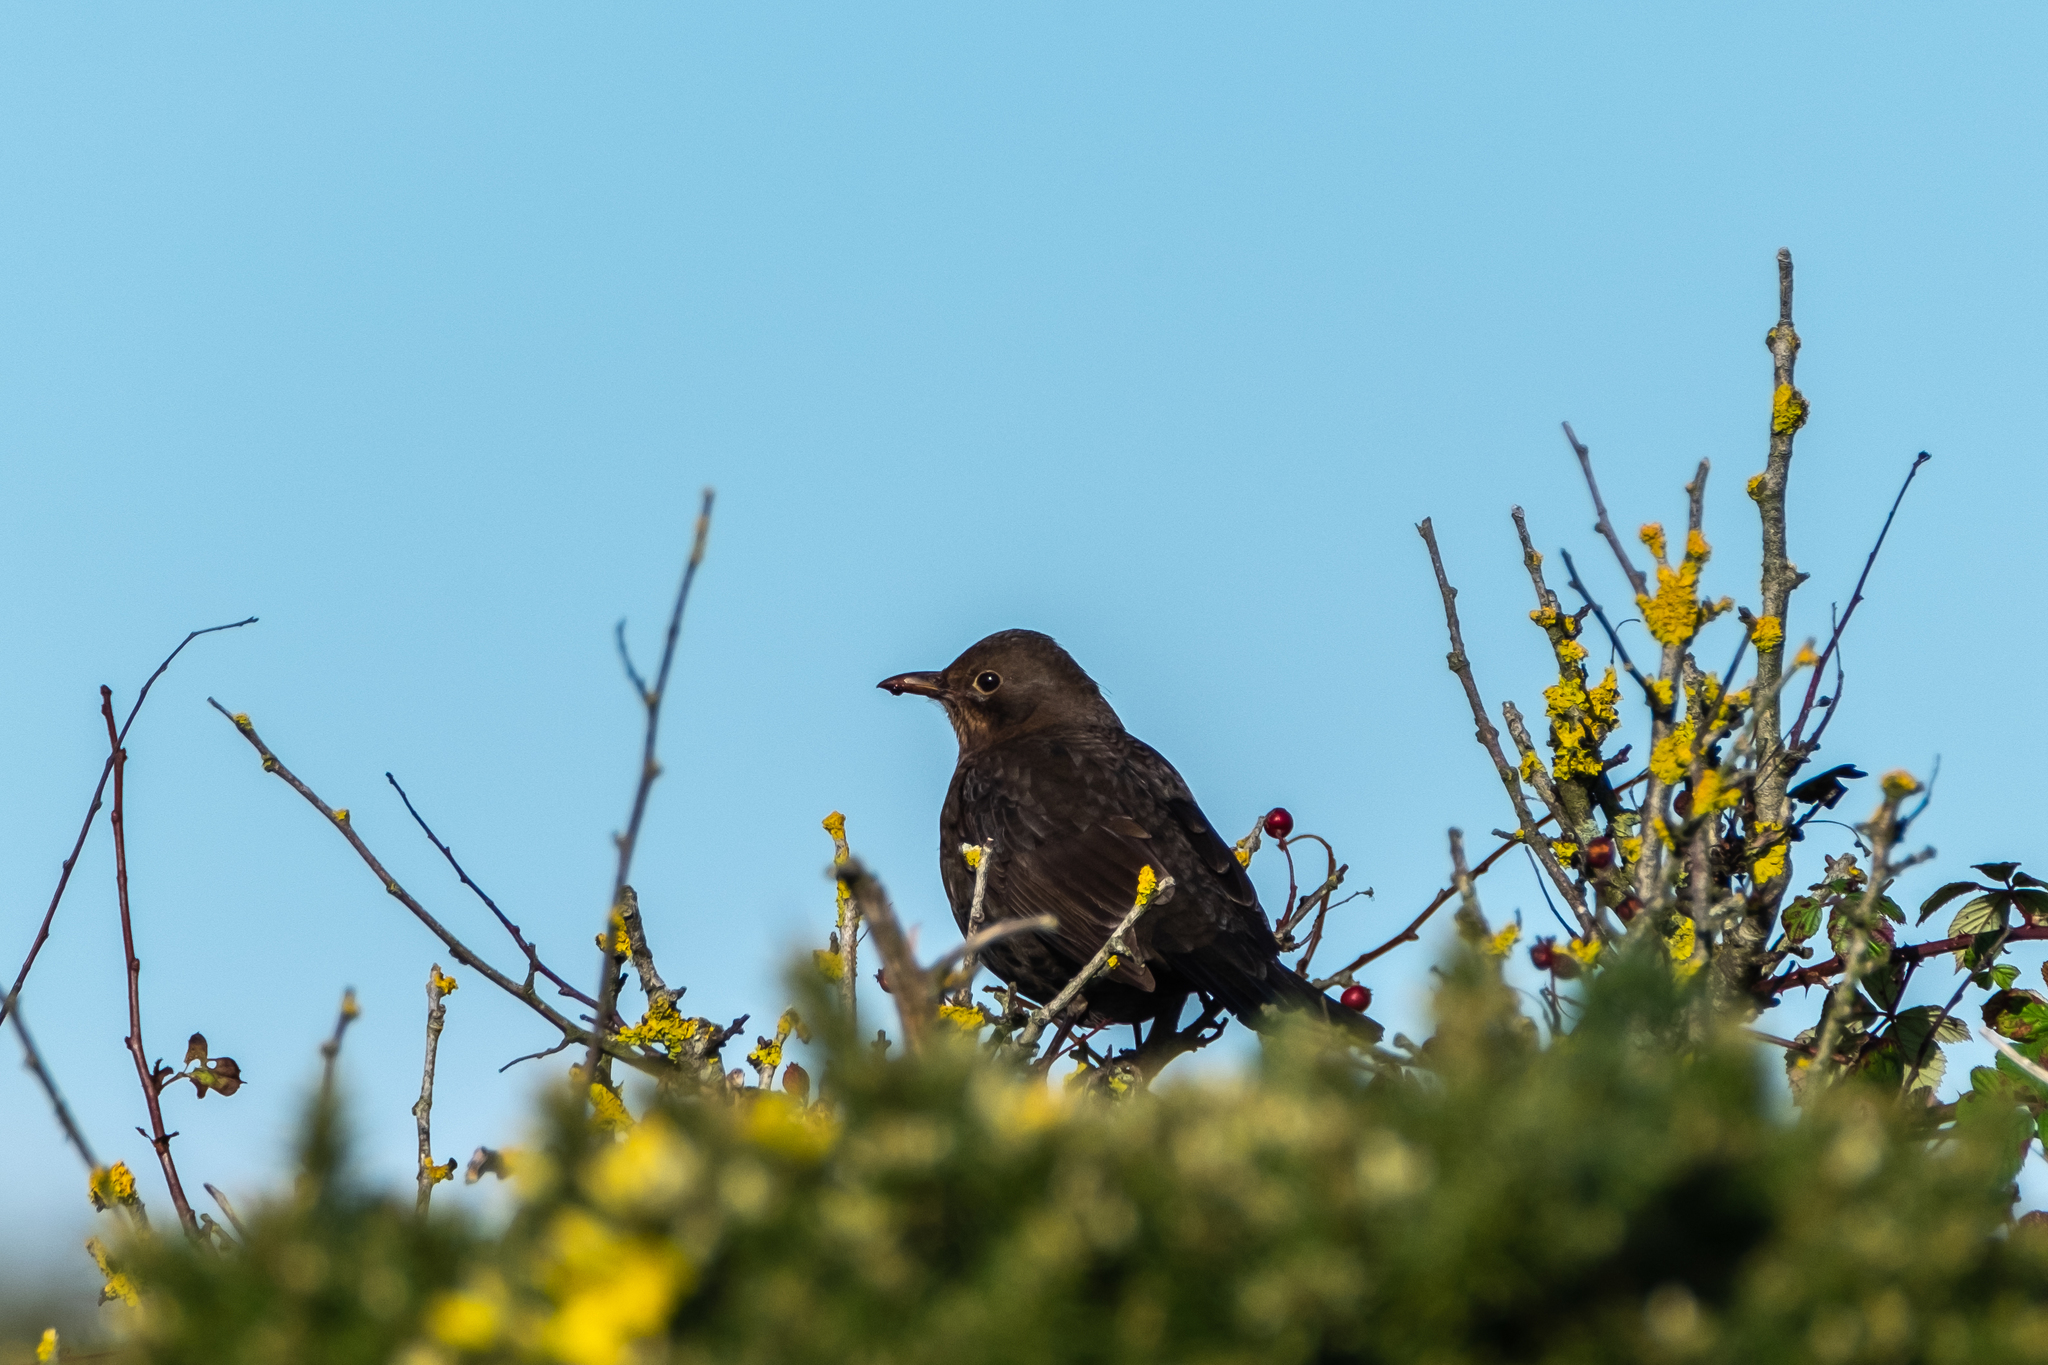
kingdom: Animalia
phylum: Chordata
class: Aves
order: Passeriformes
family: Turdidae
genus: Turdus
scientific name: Turdus merula
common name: Common blackbird
